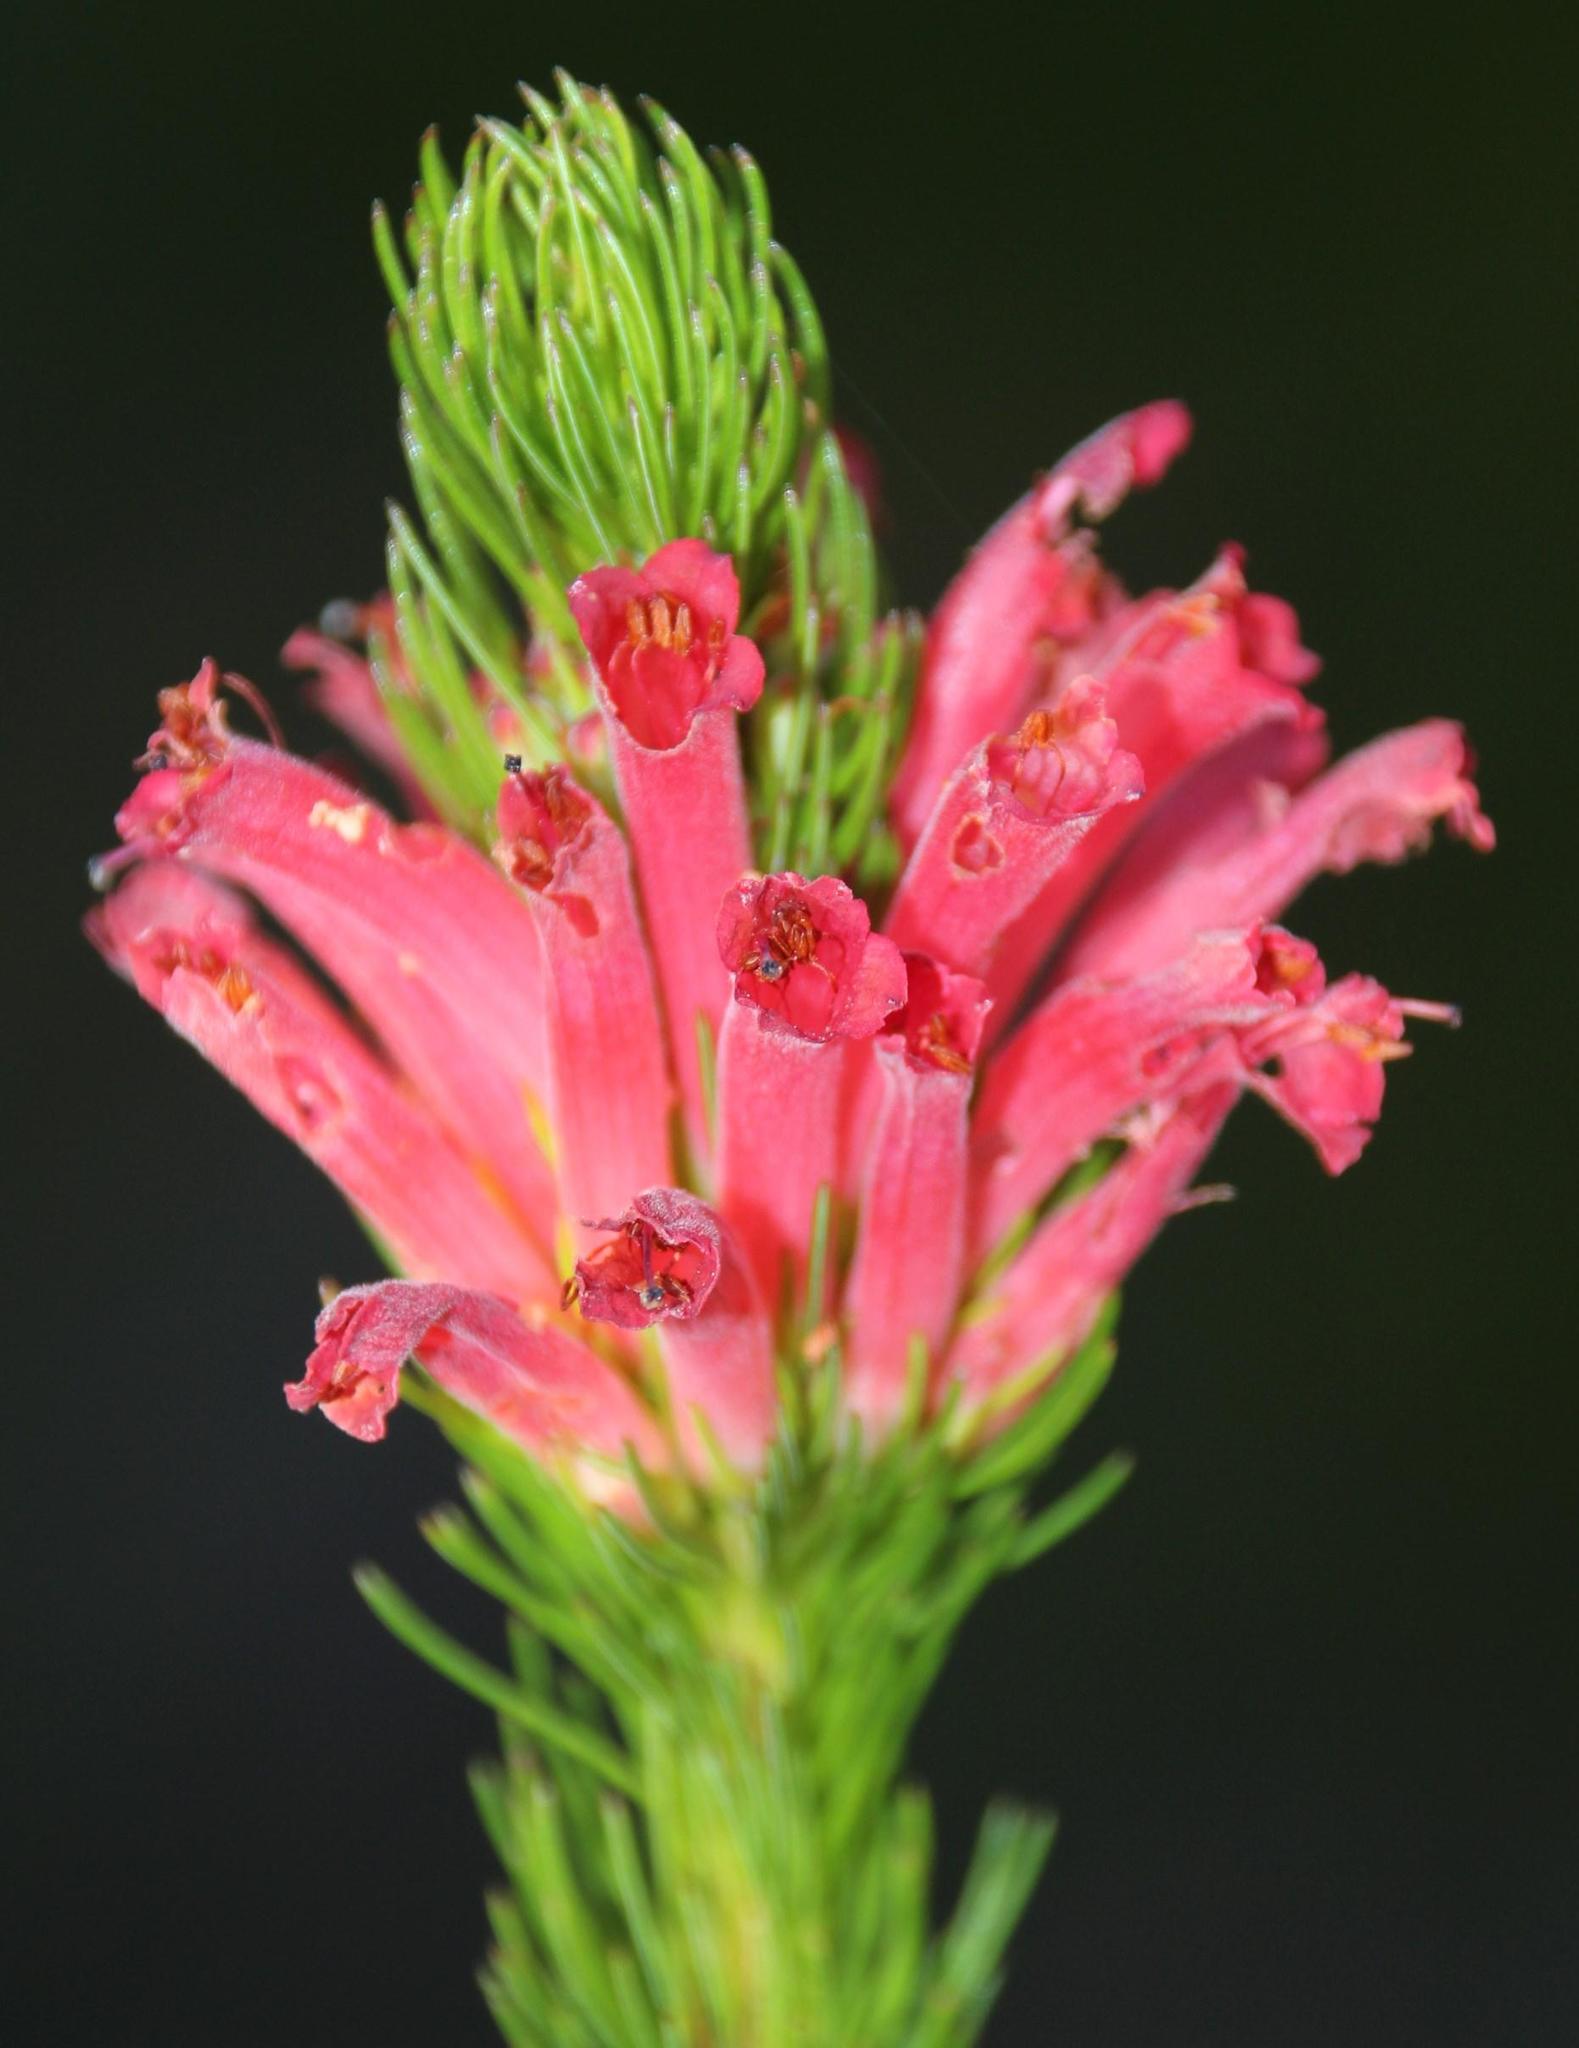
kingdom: Plantae
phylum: Tracheophyta
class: Magnoliopsida
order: Ericales
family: Ericaceae
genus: Erica
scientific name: Erica vestita
